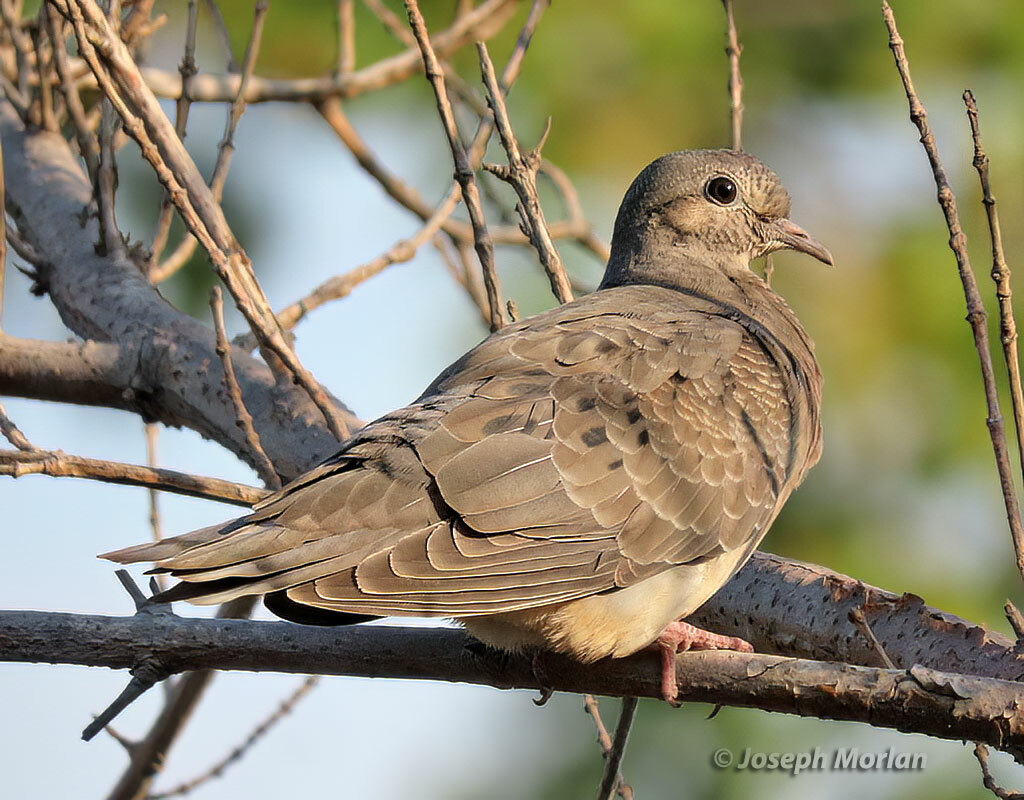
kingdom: Animalia
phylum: Chordata
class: Aves
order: Columbiformes
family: Columbidae
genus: Zenaida
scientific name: Zenaida auriculata
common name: Eared dove
